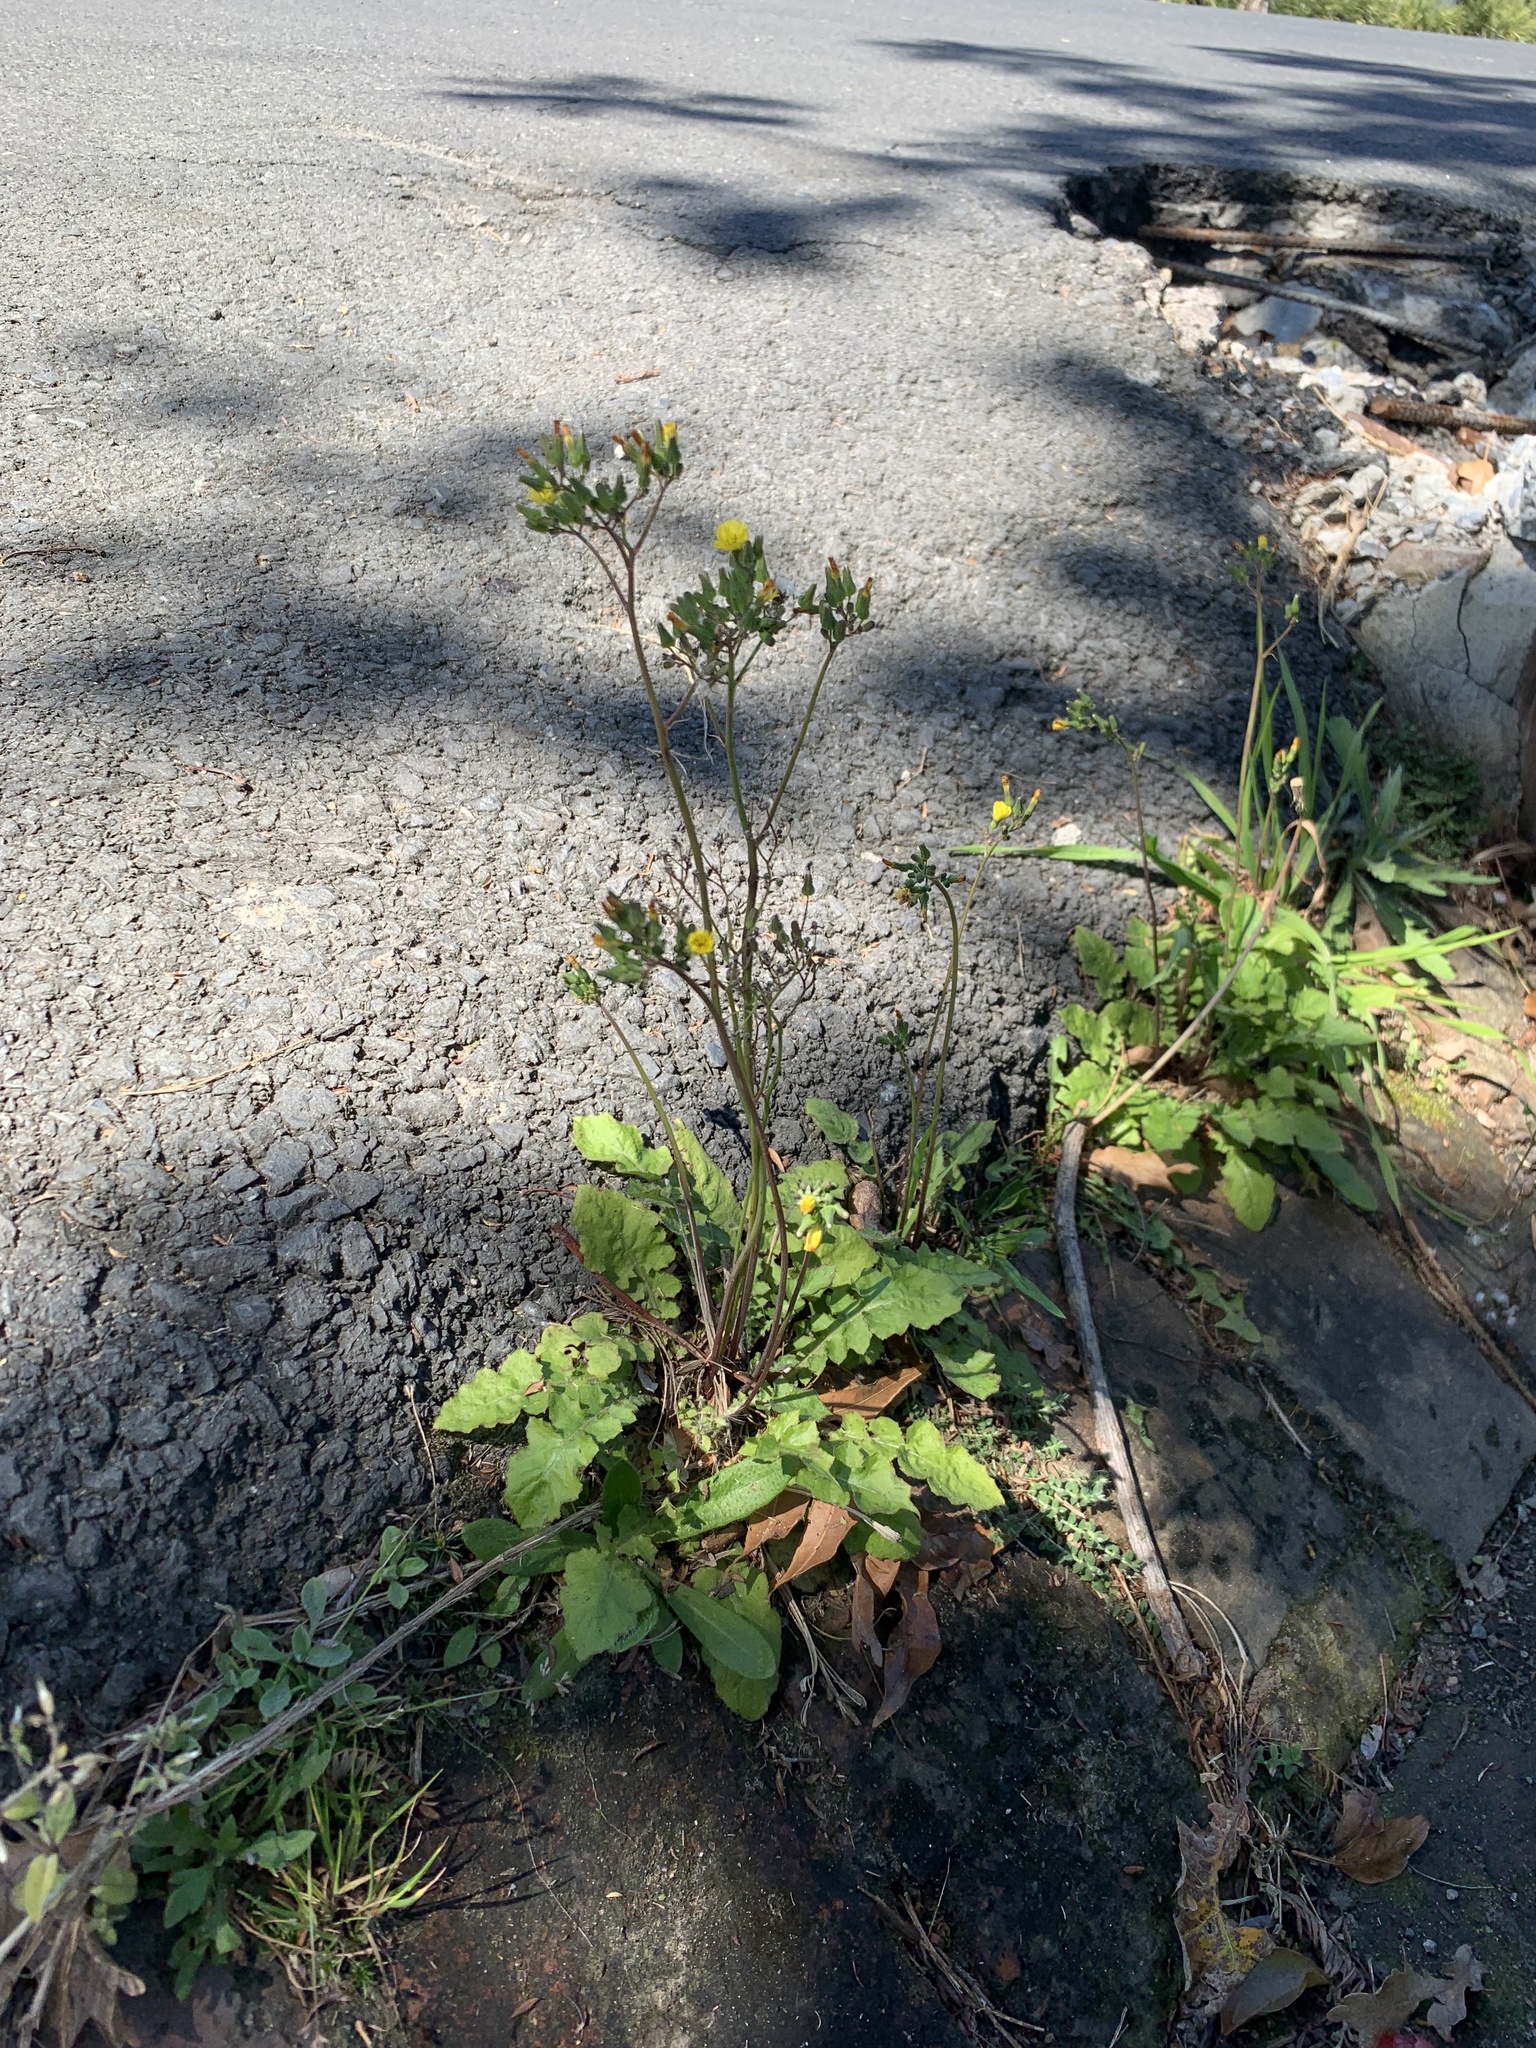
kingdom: Plantae
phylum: Tracheophyta
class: Magnoliopsida
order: Asterales
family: Asteraceae
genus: Youngia
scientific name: Youngia japonica
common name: Oriental false hawksbeard
